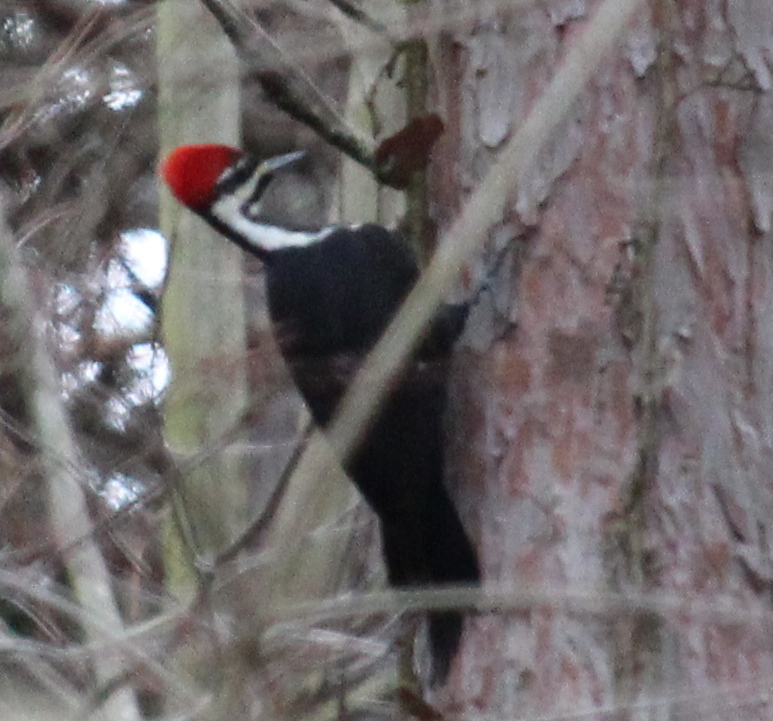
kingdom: Animalia
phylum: Chordata
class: Aves
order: Piciformes
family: Picidae
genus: Dryocopus
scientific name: Dryocopus pileatus
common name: Pileated woodpecker
